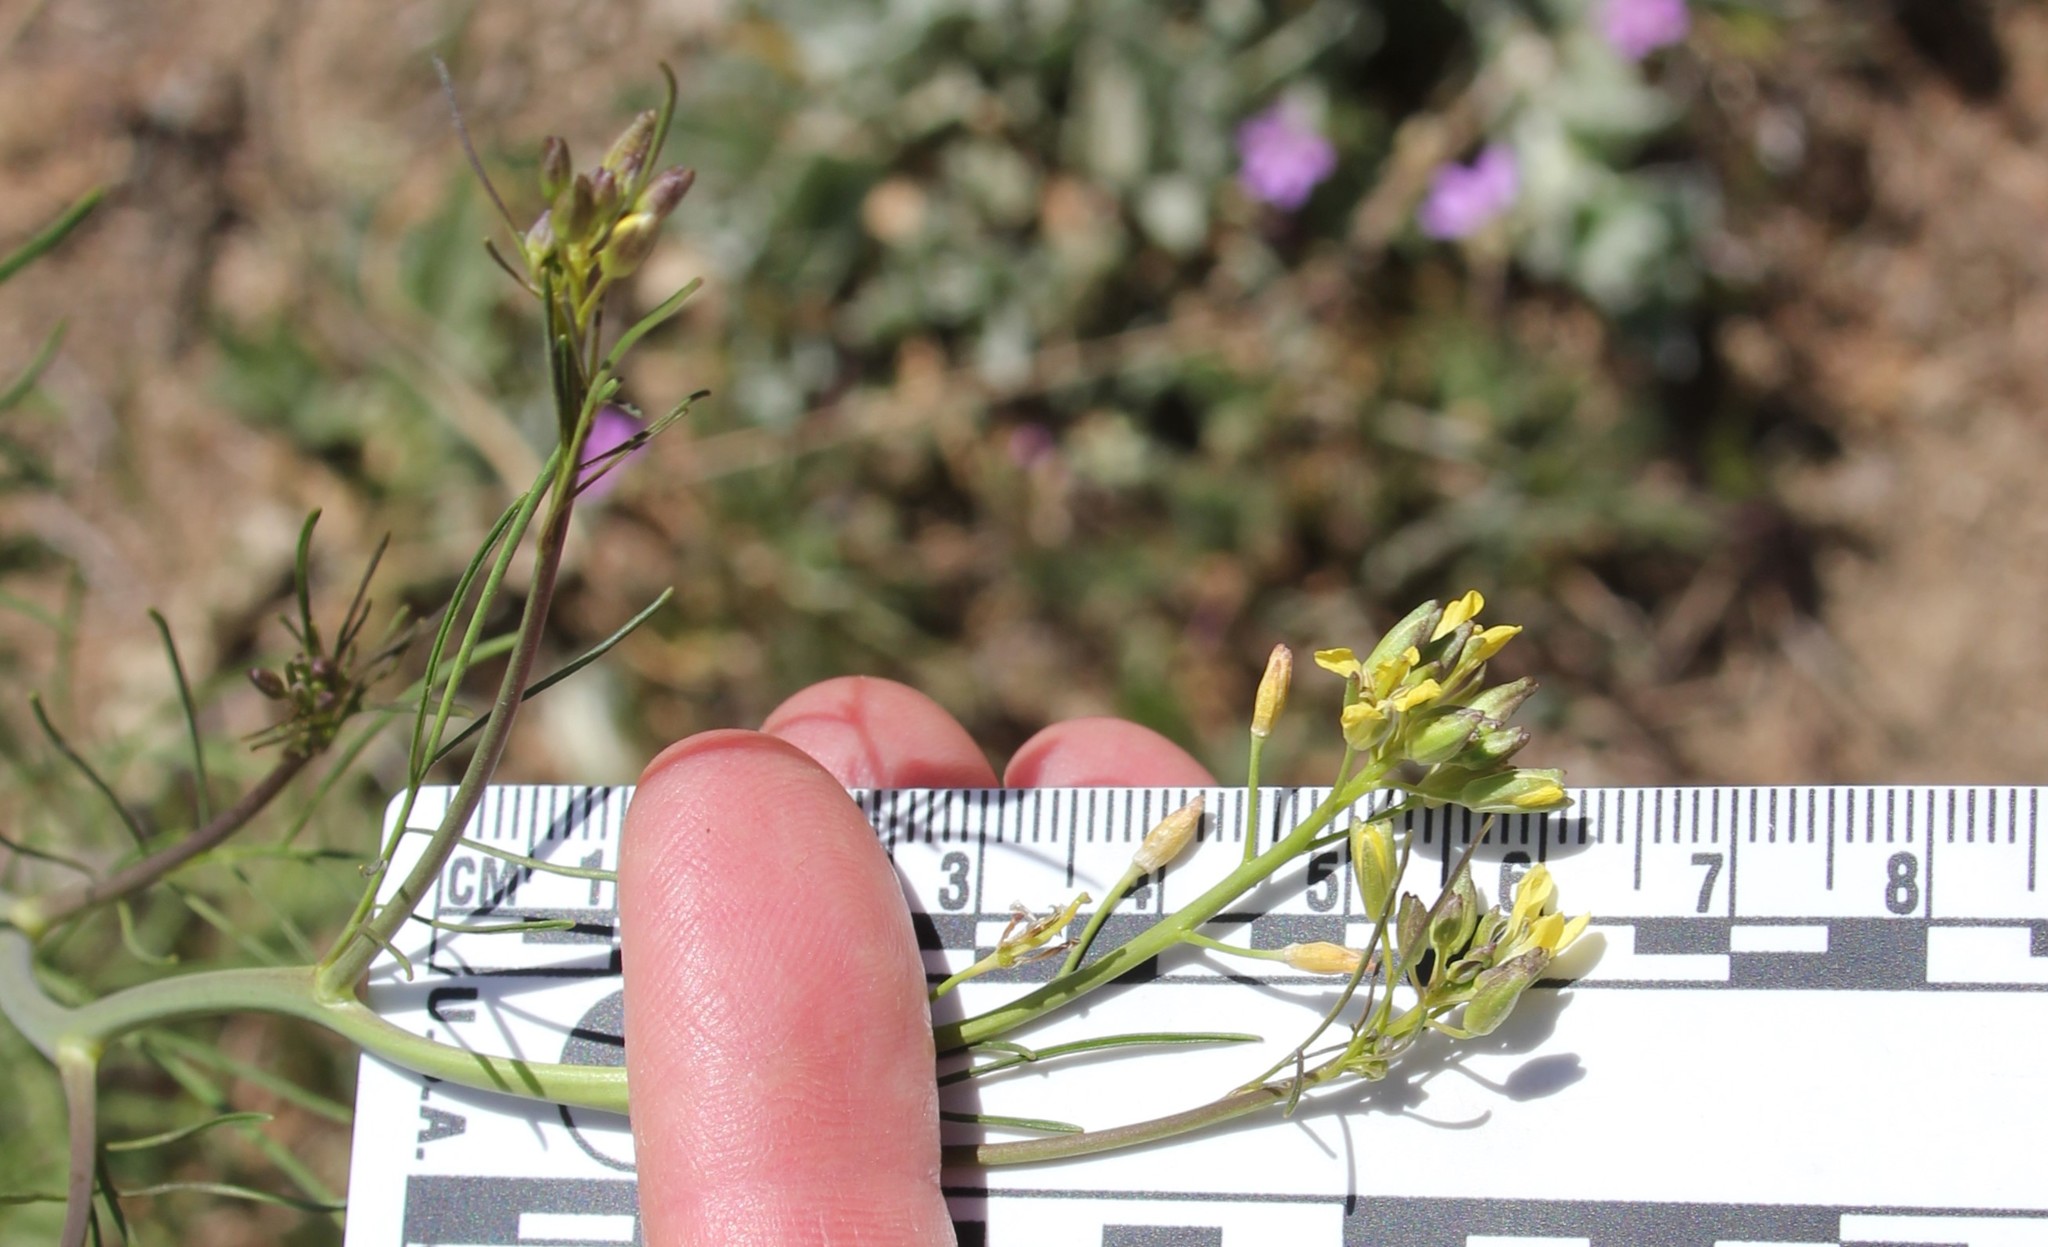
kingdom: Plantae
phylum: Tracheophyta
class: Magnoliopsida
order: Brassicales
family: Brassicaceae
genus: Sisymbrium
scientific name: Sisymbrium altissimum
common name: Tall rocket
